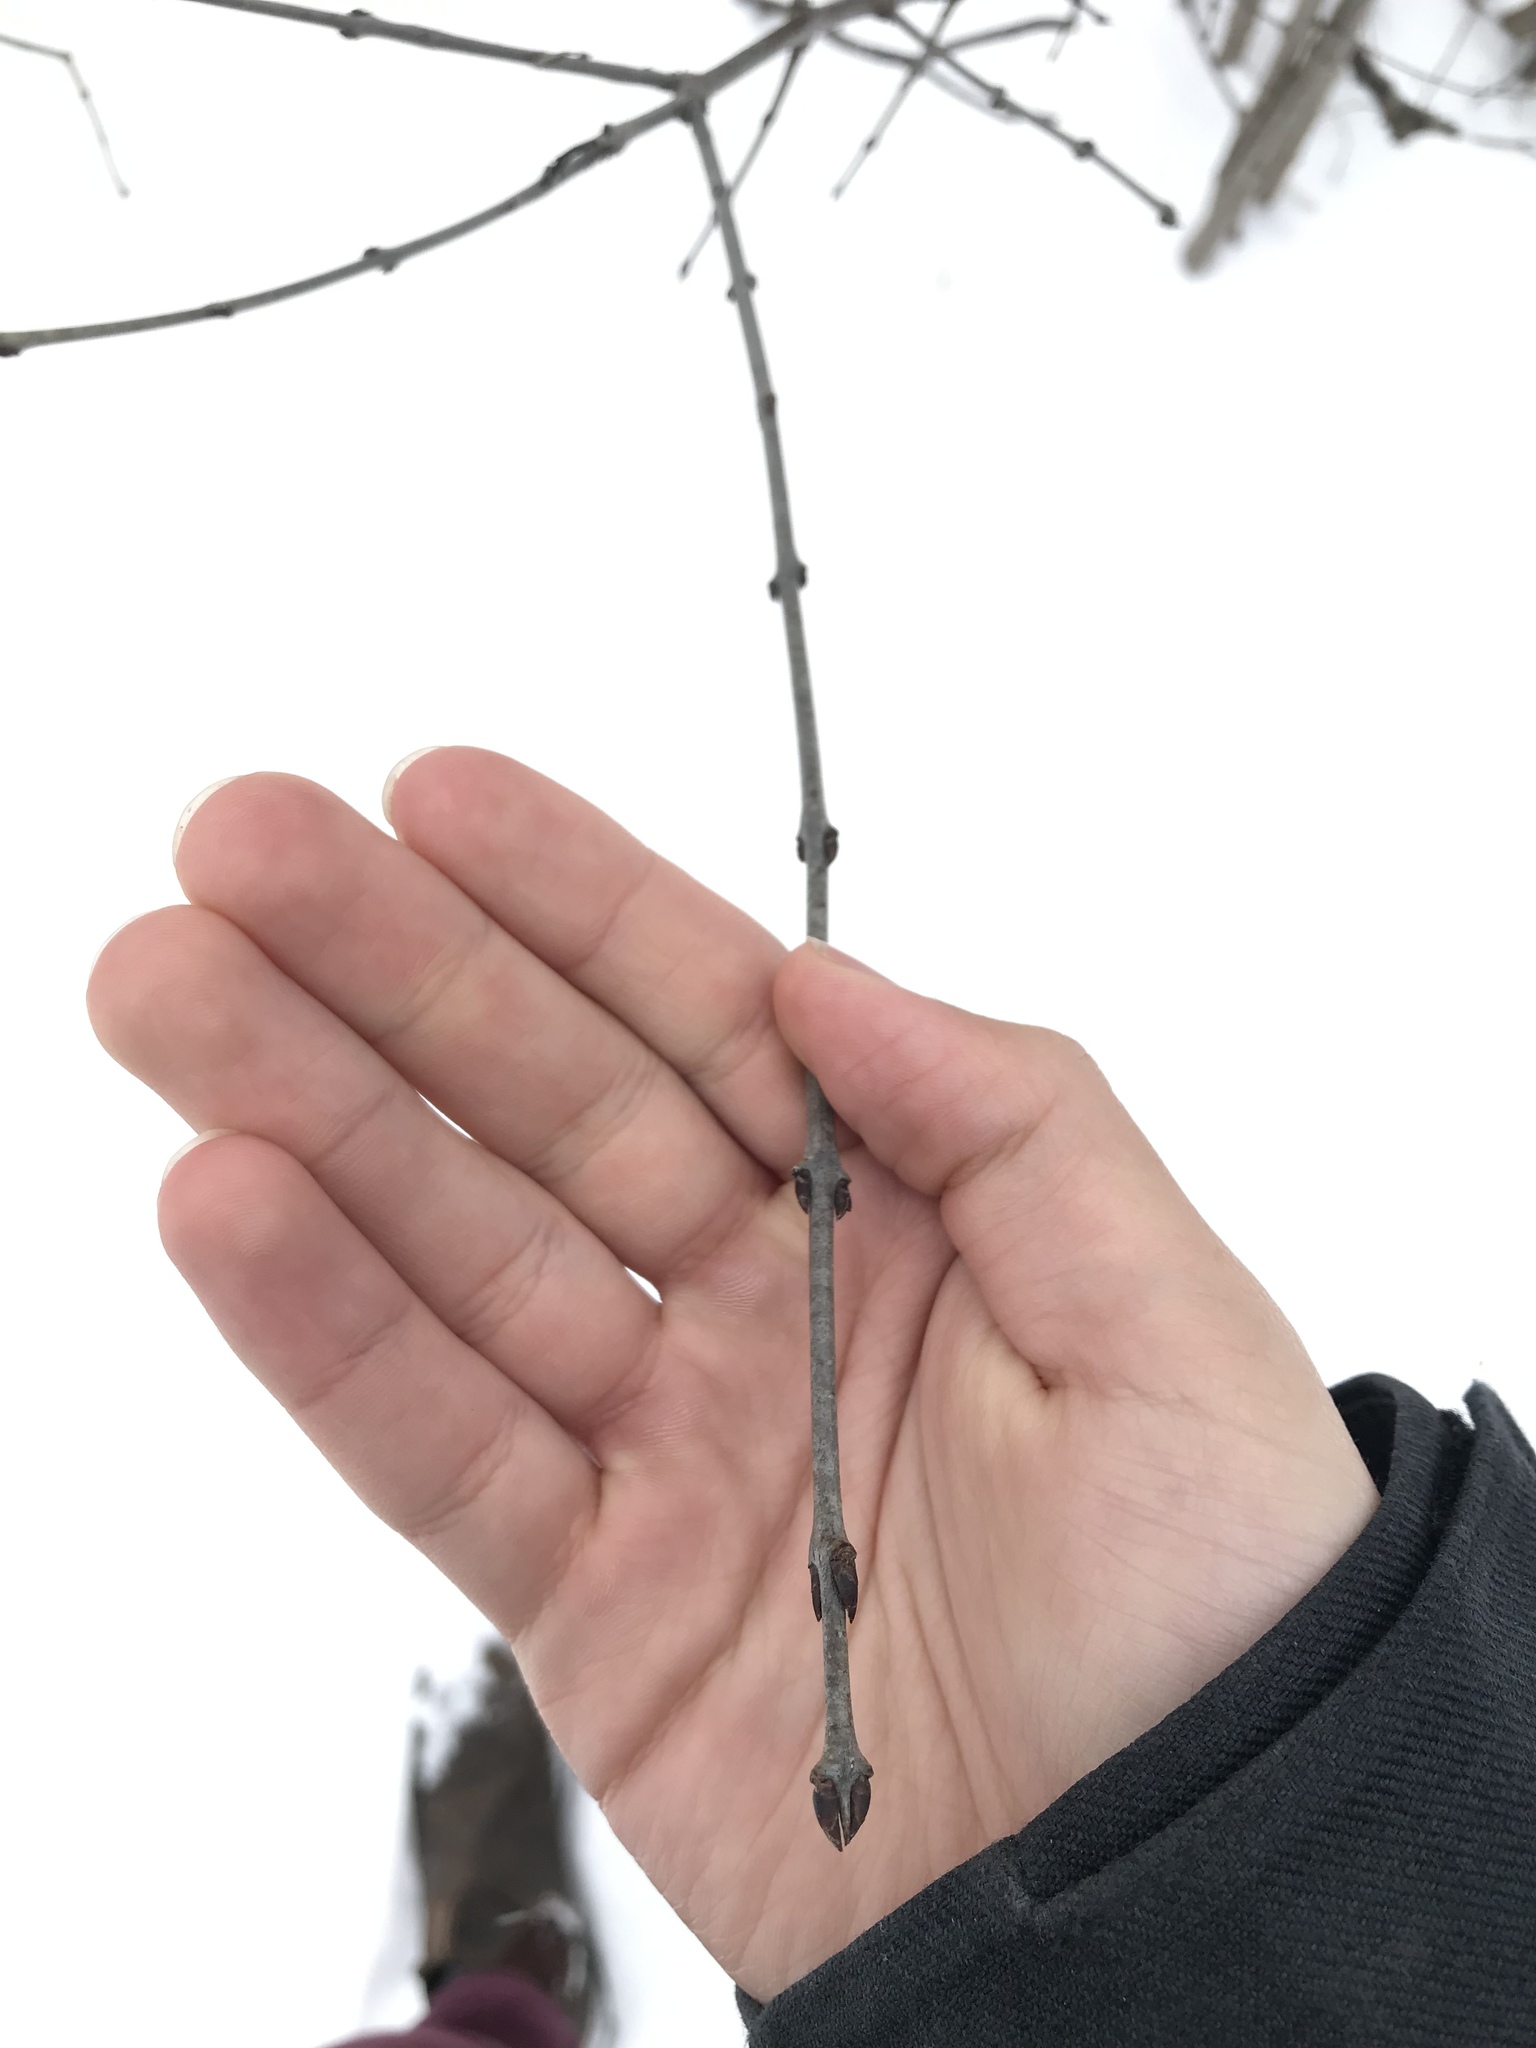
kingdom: Plantae
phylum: Tracheophyta
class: Magnoliopsida
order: Rosales
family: Rhamnaceae
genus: Rhamnus
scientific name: Rhamnus cathartica
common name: Common buckthorn
